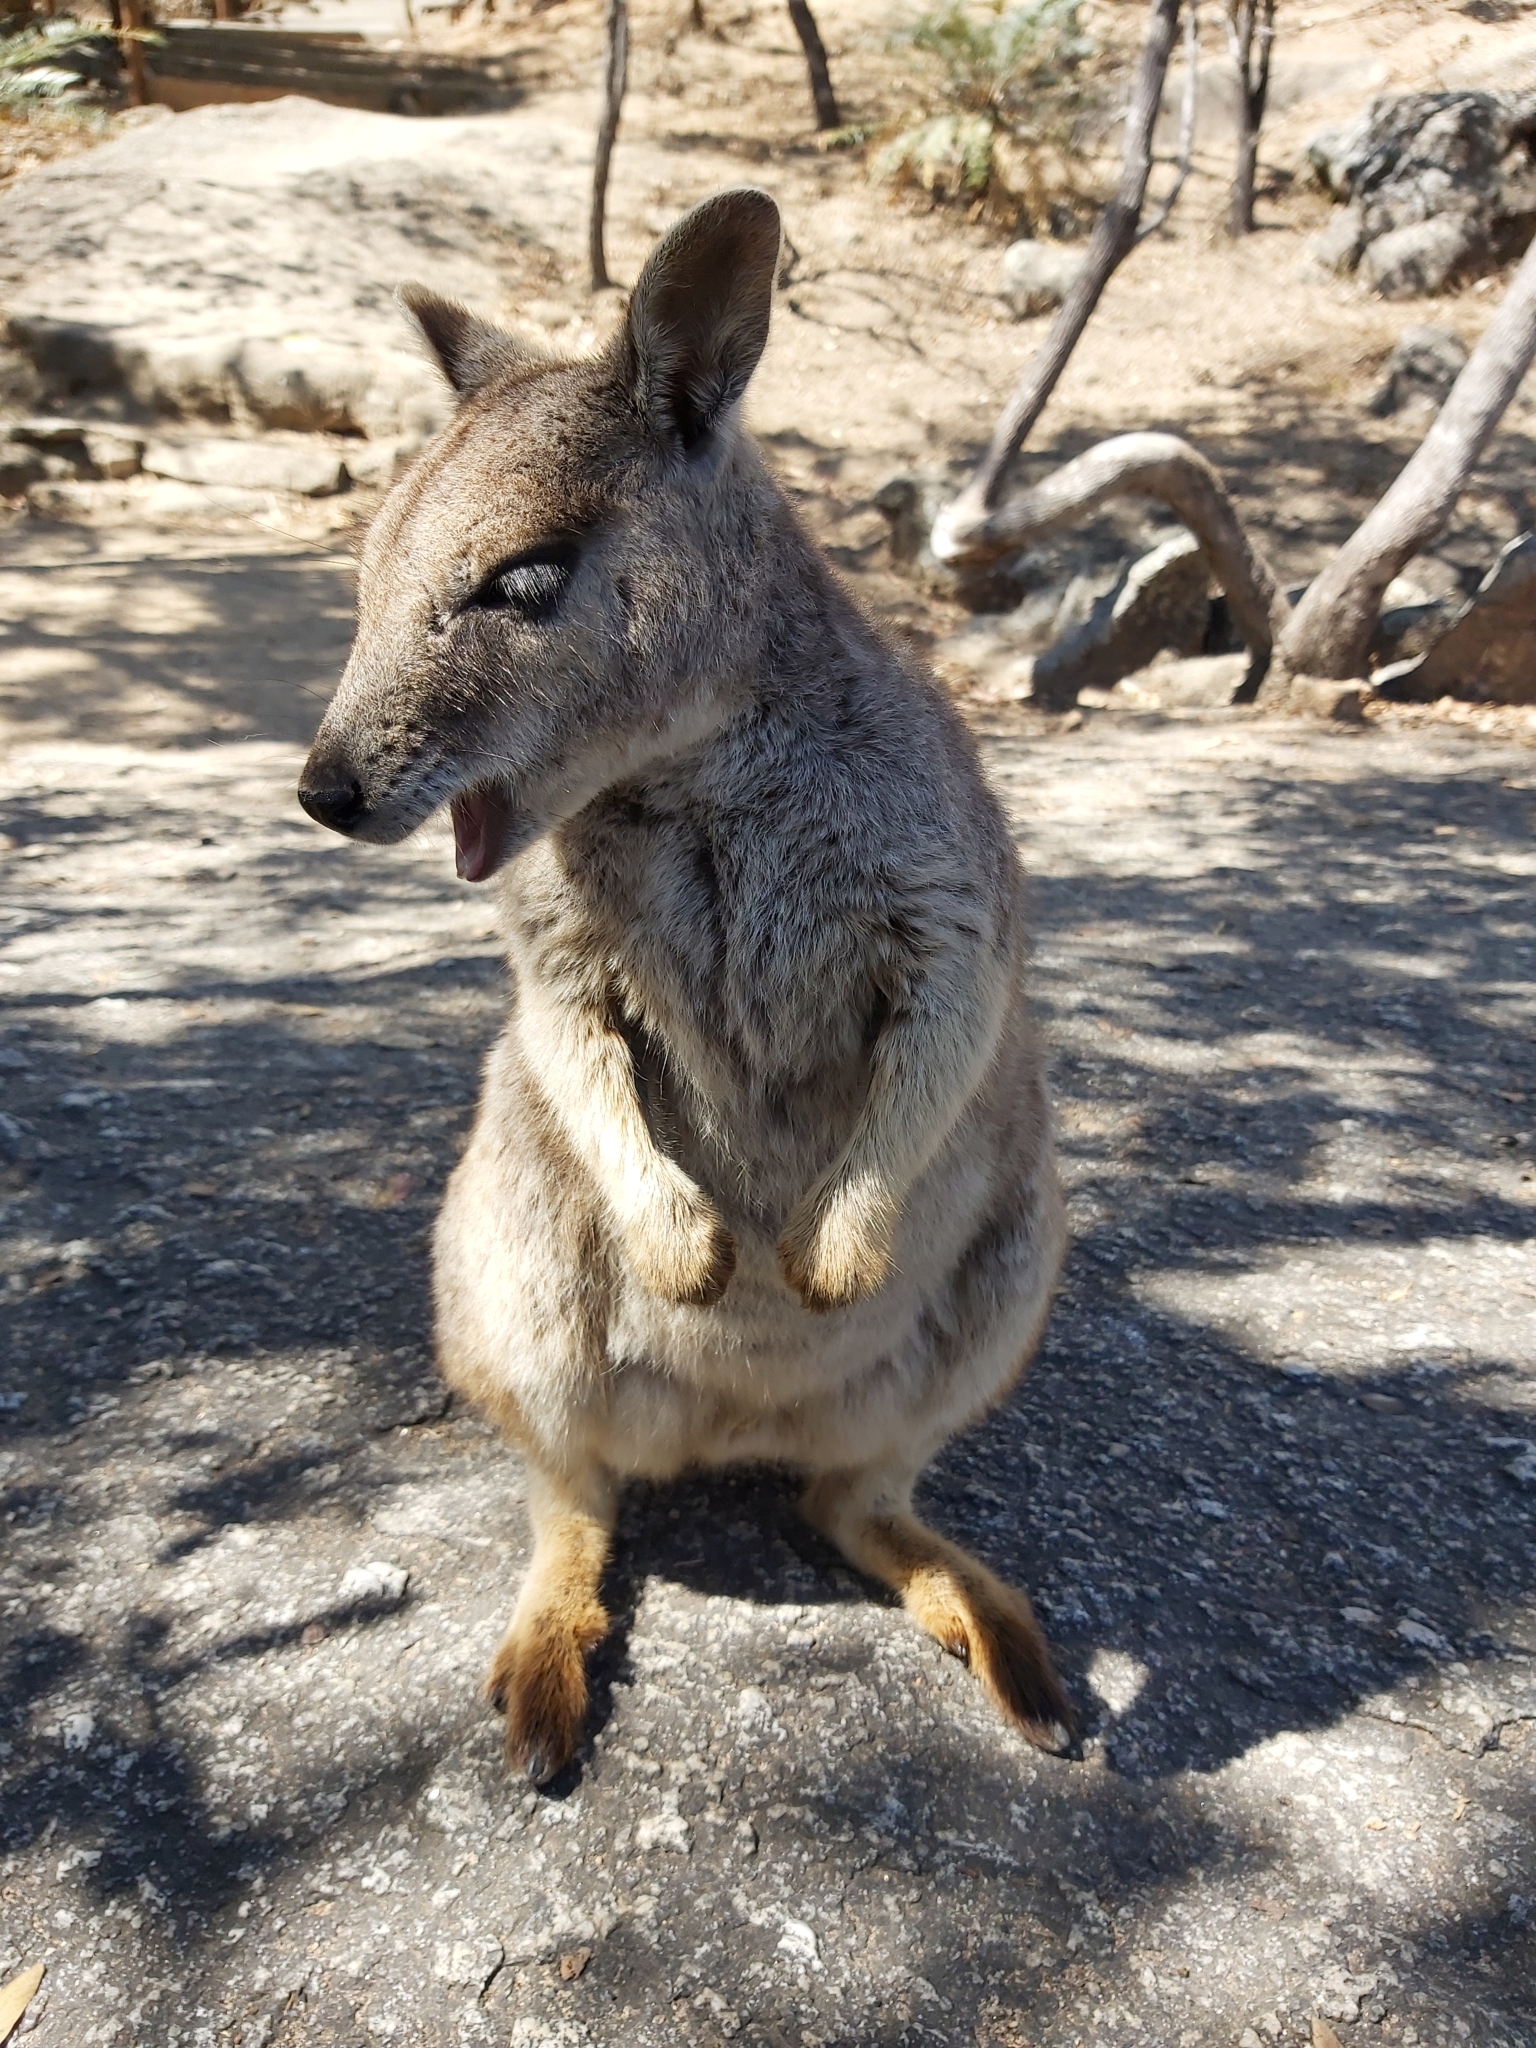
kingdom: Animalia
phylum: Chordata
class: Mammalia
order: Diprotodontia
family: Macropodidae
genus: Petrogale
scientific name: Petrogale mareeba
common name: Mareeba rock-wallaby
